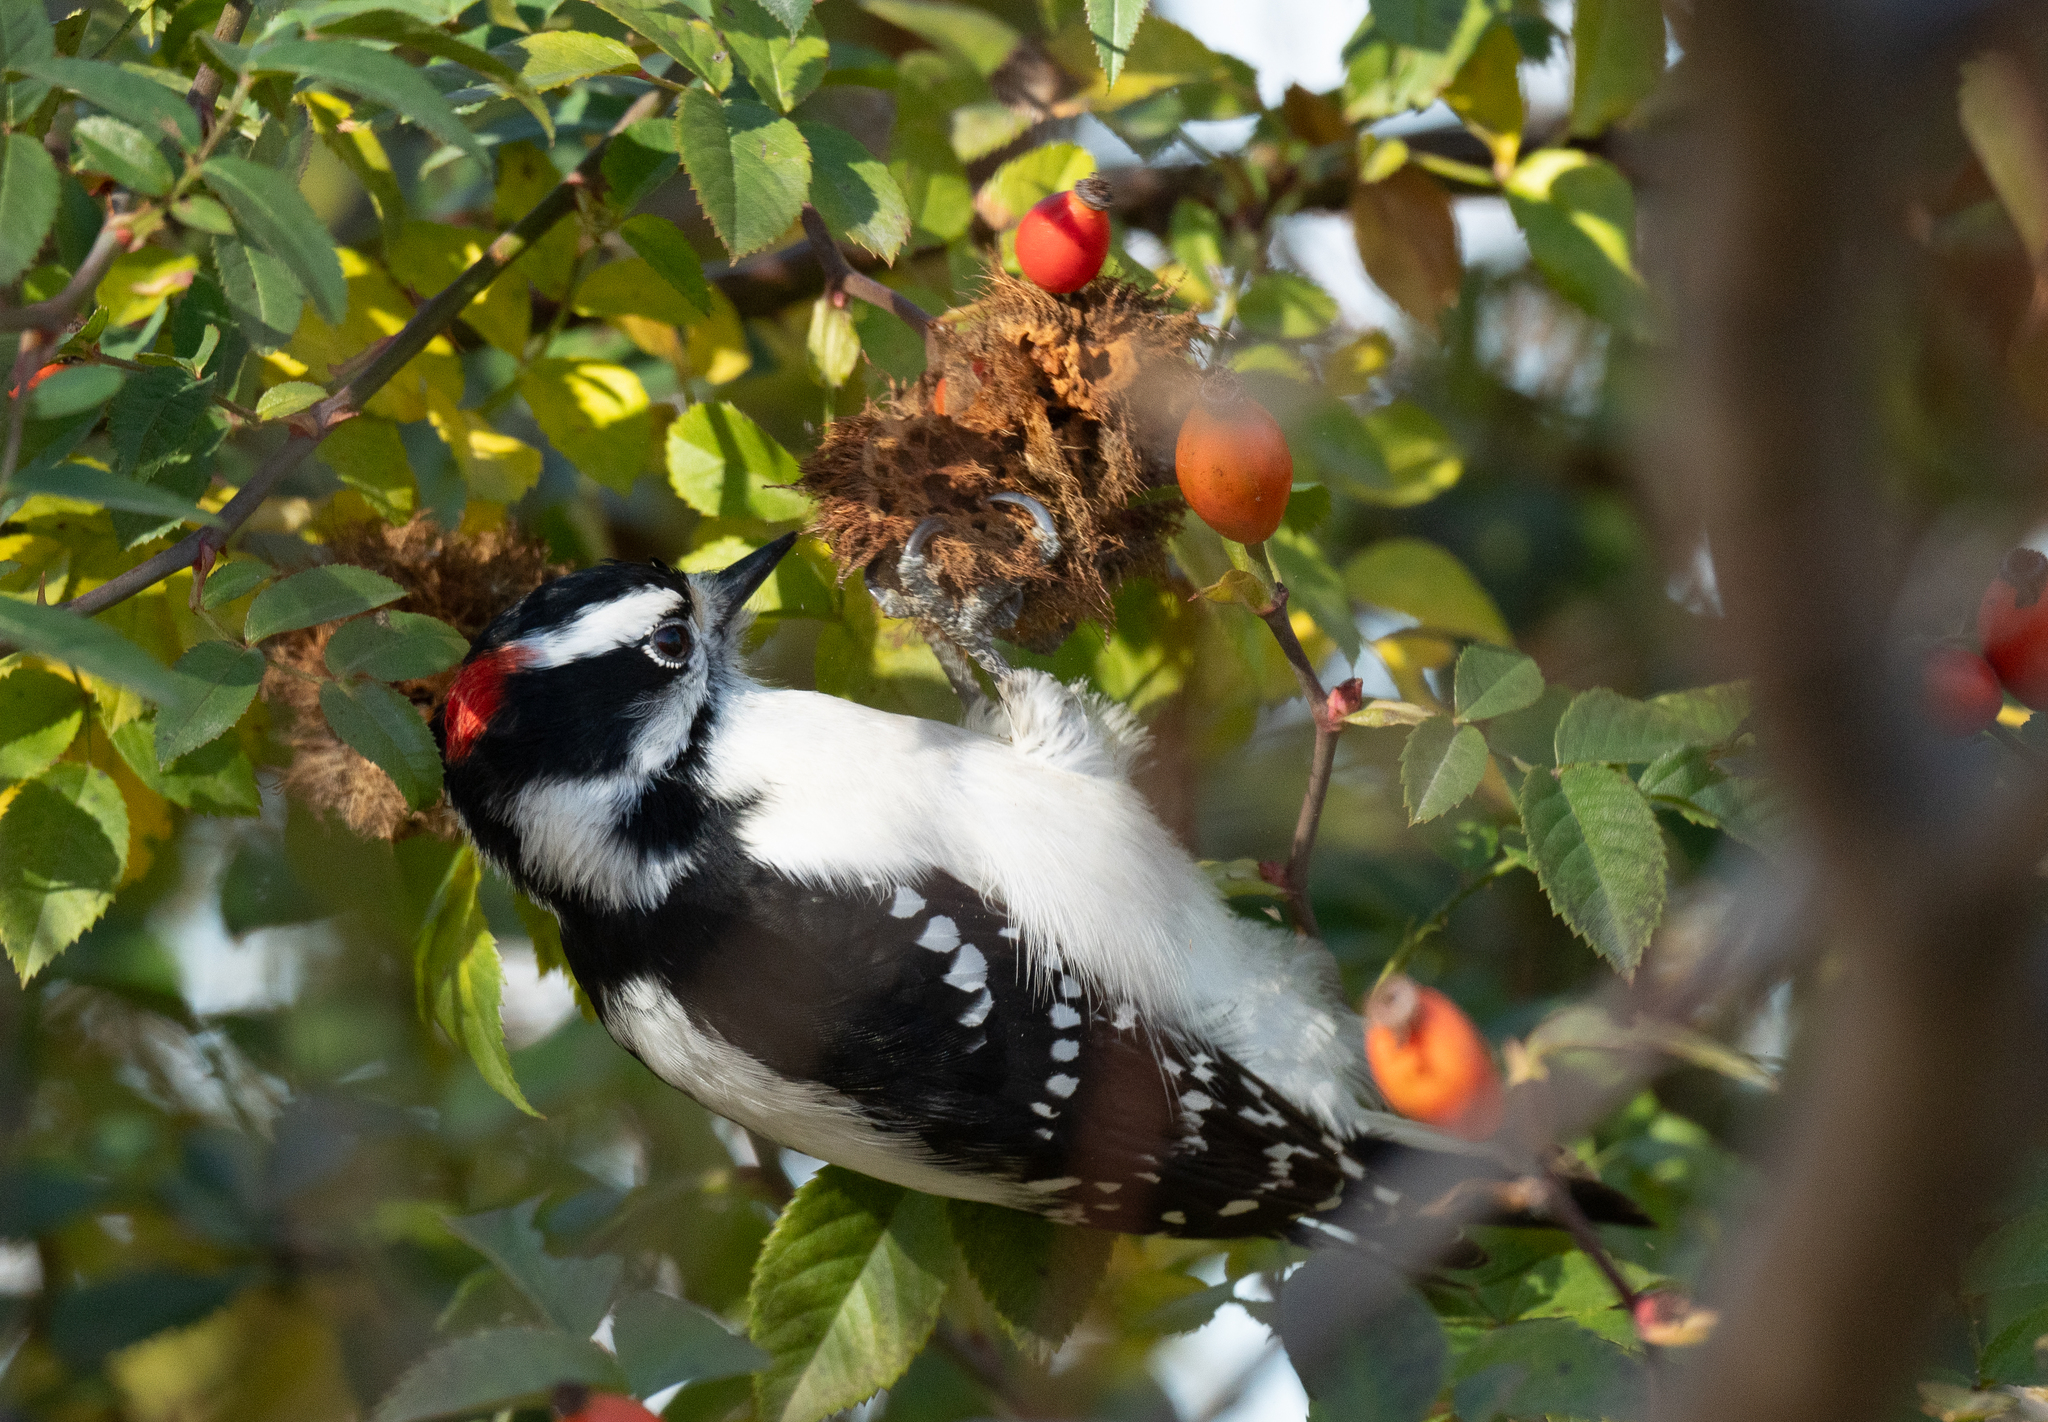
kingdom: Animalia
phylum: Arthropoda
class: Insecta
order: Hymenoptera
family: Cynipidae
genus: Diplolepis
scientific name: Diplolepis rosae
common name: Bedeguar gall
